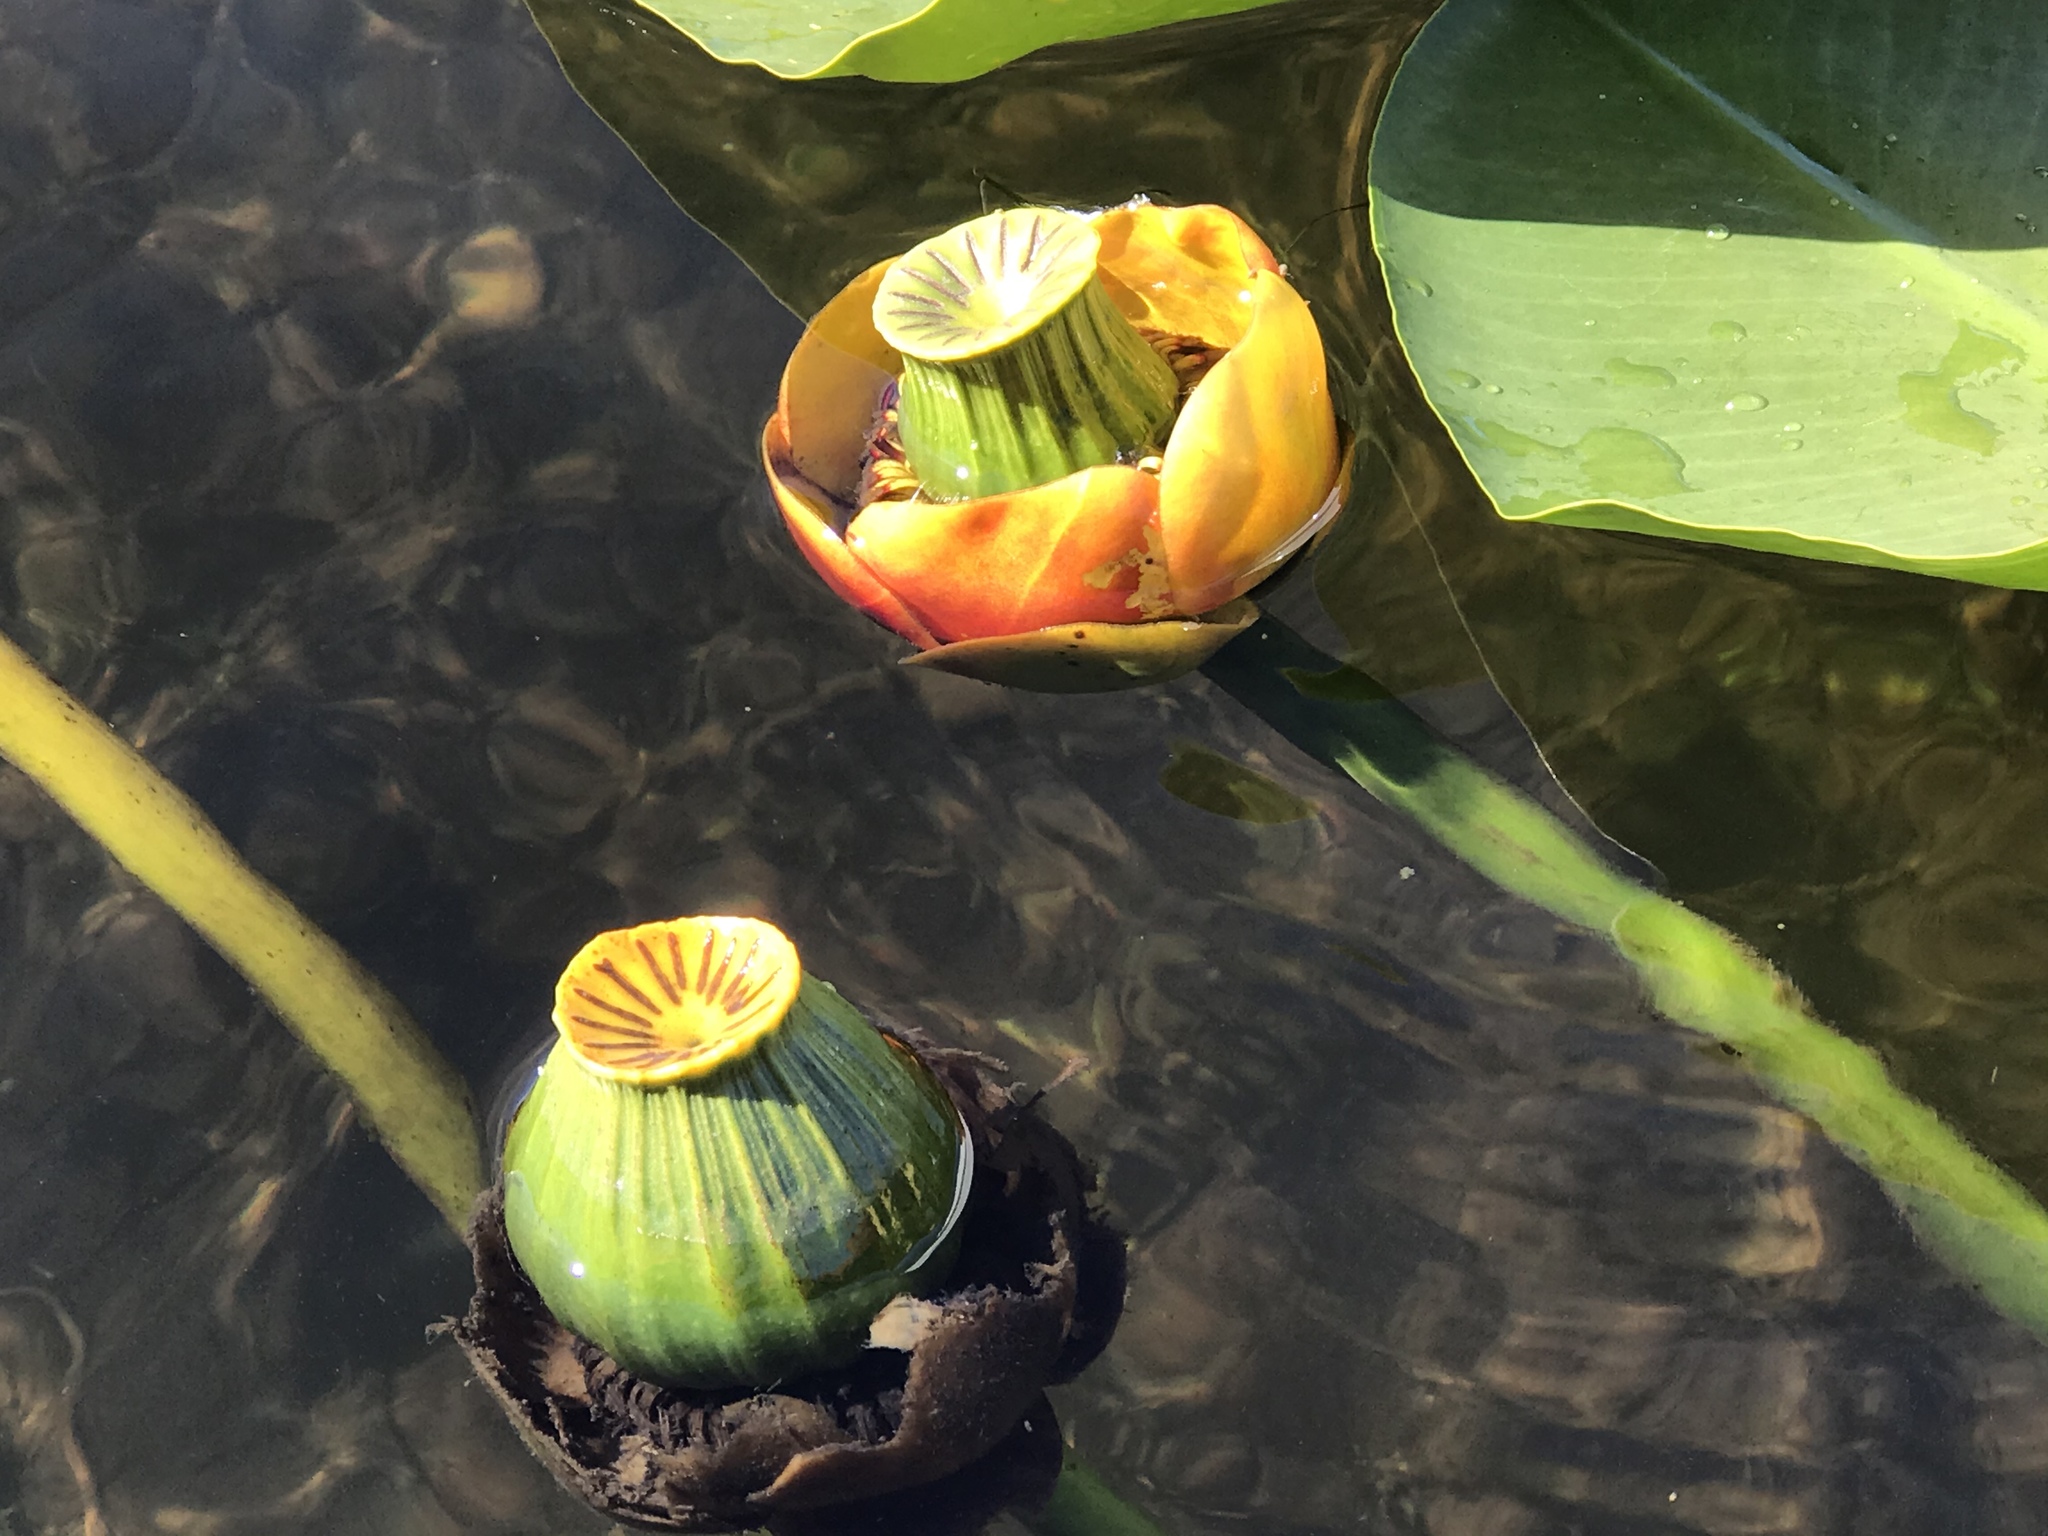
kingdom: Plantae
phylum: Tracheophyta
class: Magnoliopsida
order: Nymphaeales
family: Nymphaeaceae
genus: Nuphar
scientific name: Nuphar polysepala
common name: Rocky mountain cow-lily
